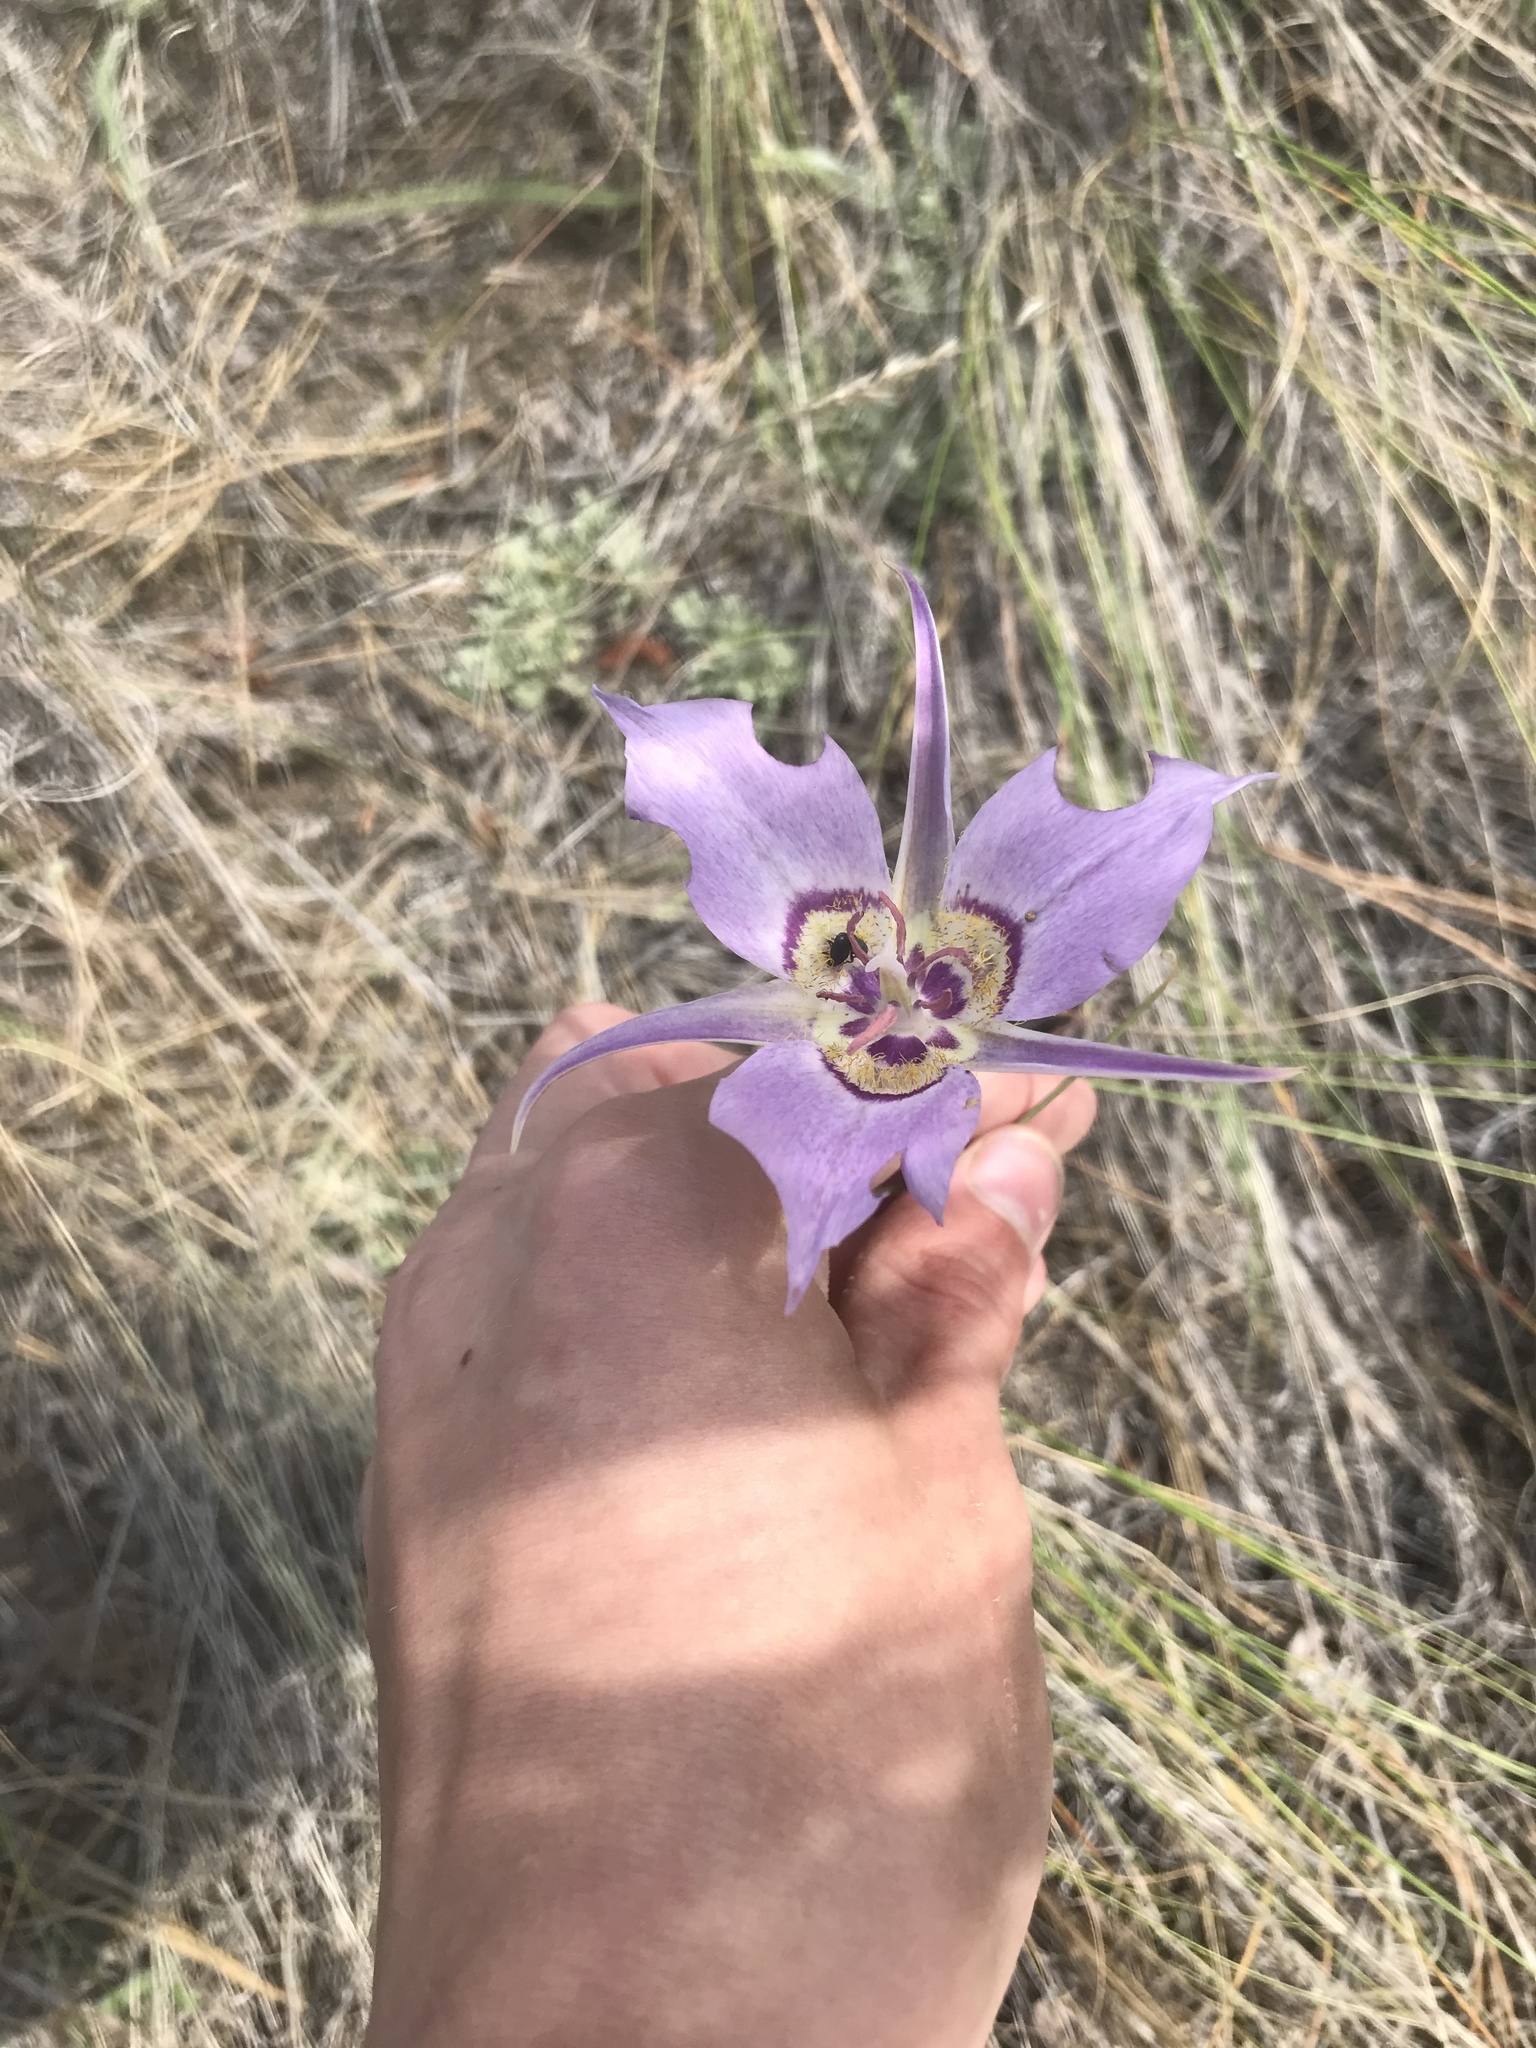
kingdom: Plantae
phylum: Tracheophyta
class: Liliopsida
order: Liliales
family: Liliaceae
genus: Calochortus
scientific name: Calochortus macrocarpus
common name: Green-band mariposa lily
